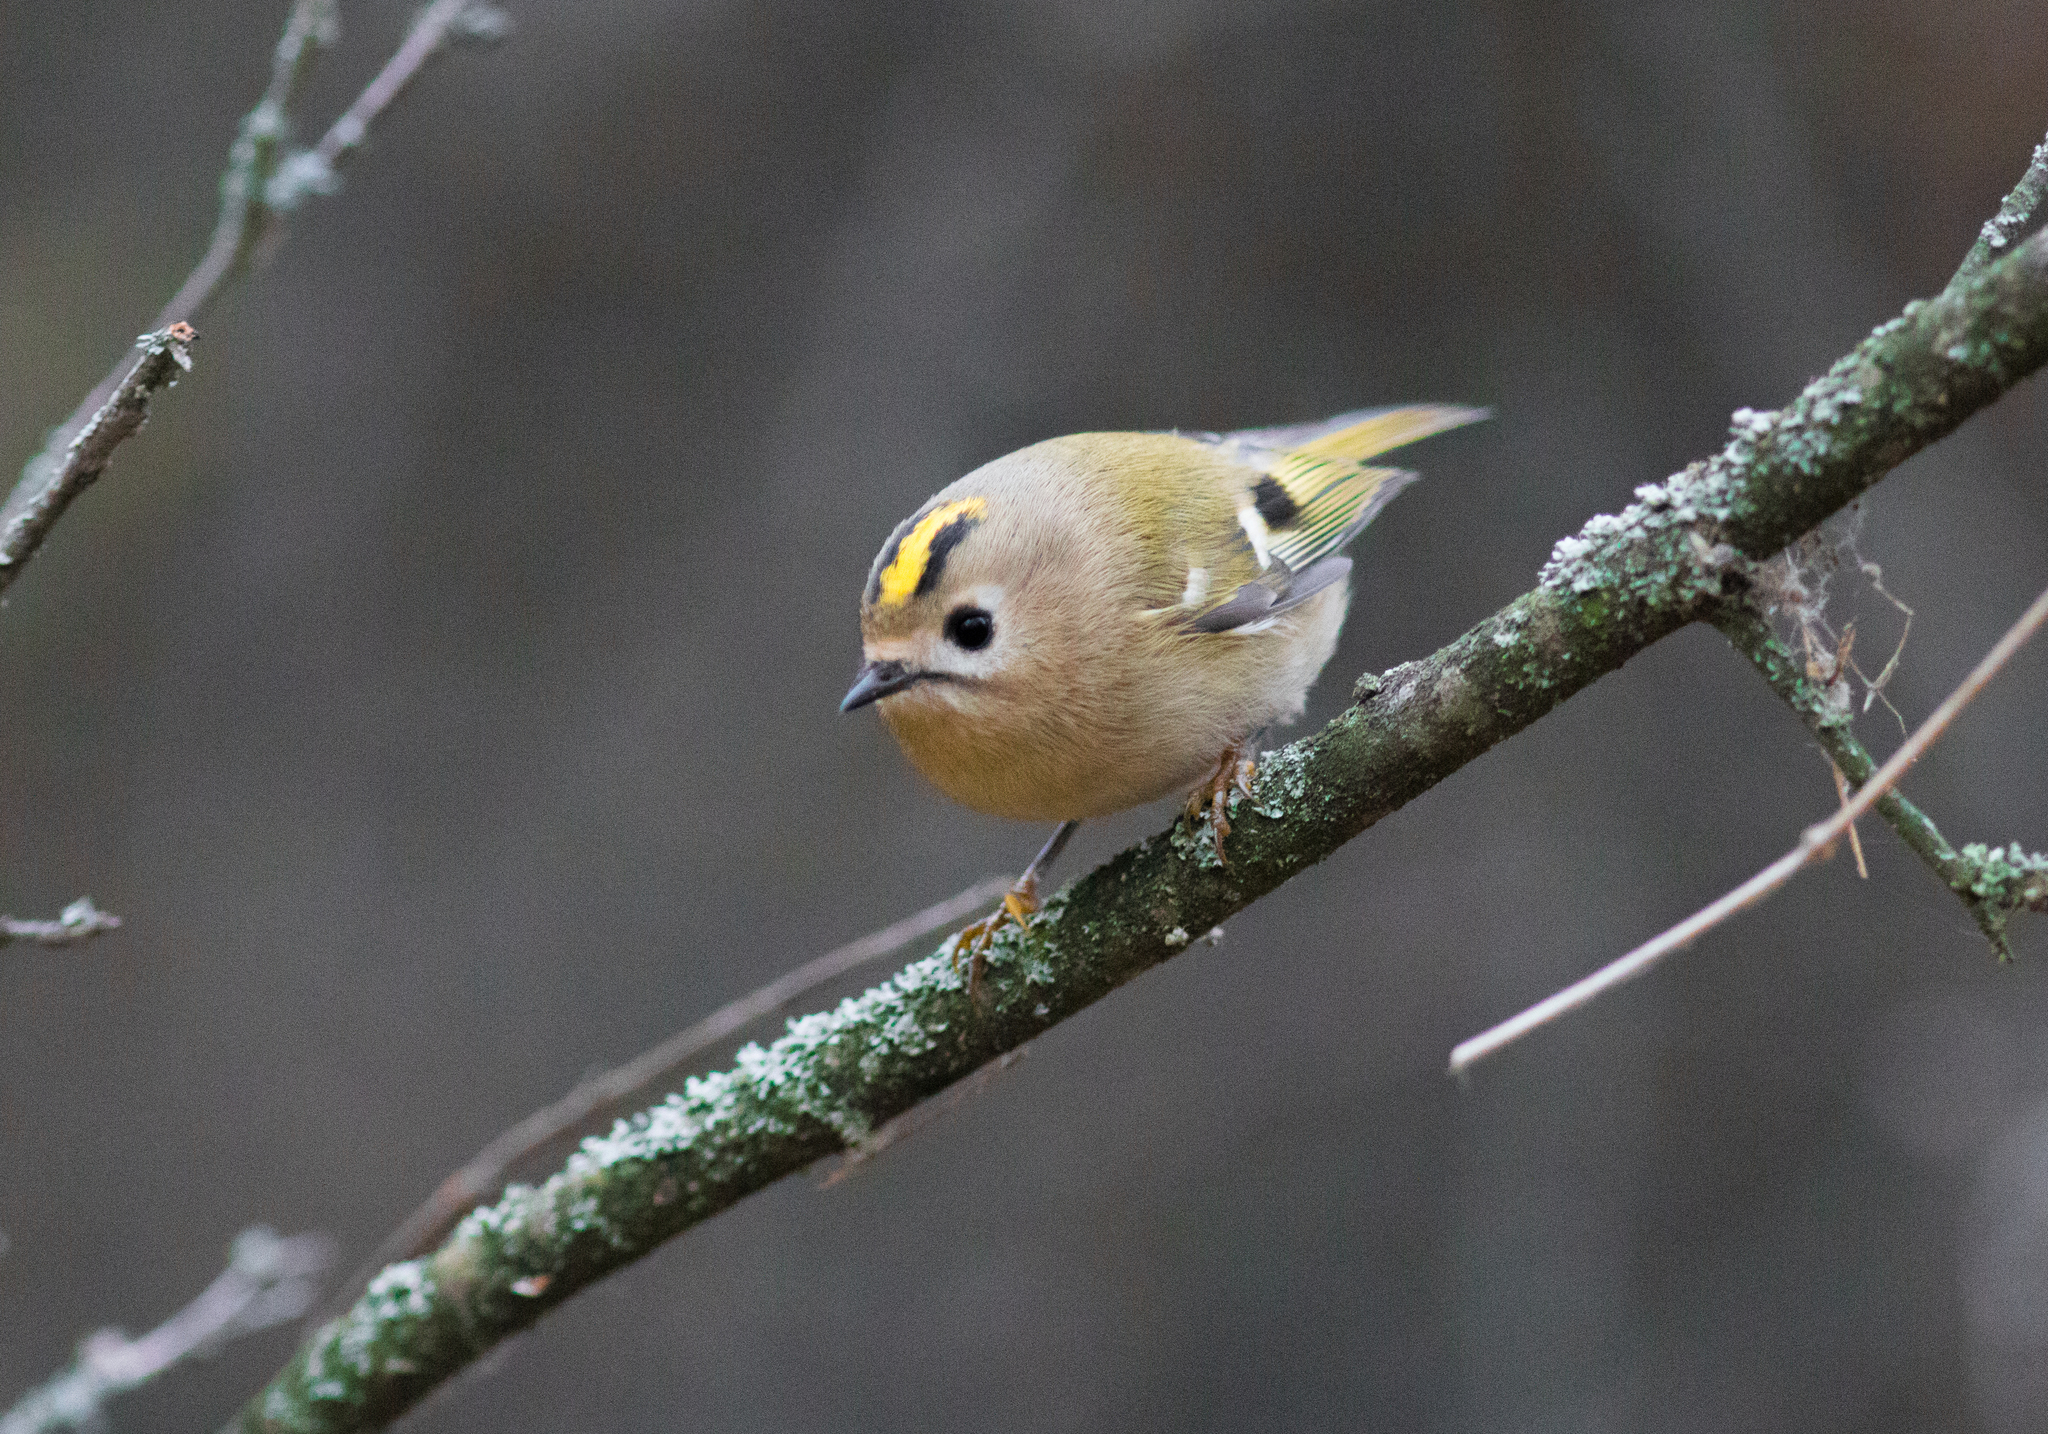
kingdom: Animalia
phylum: Chordata
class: Aves
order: Passeriformes
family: Regulidae
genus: Regulus
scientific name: Regulus regulus
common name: Goldcrest
